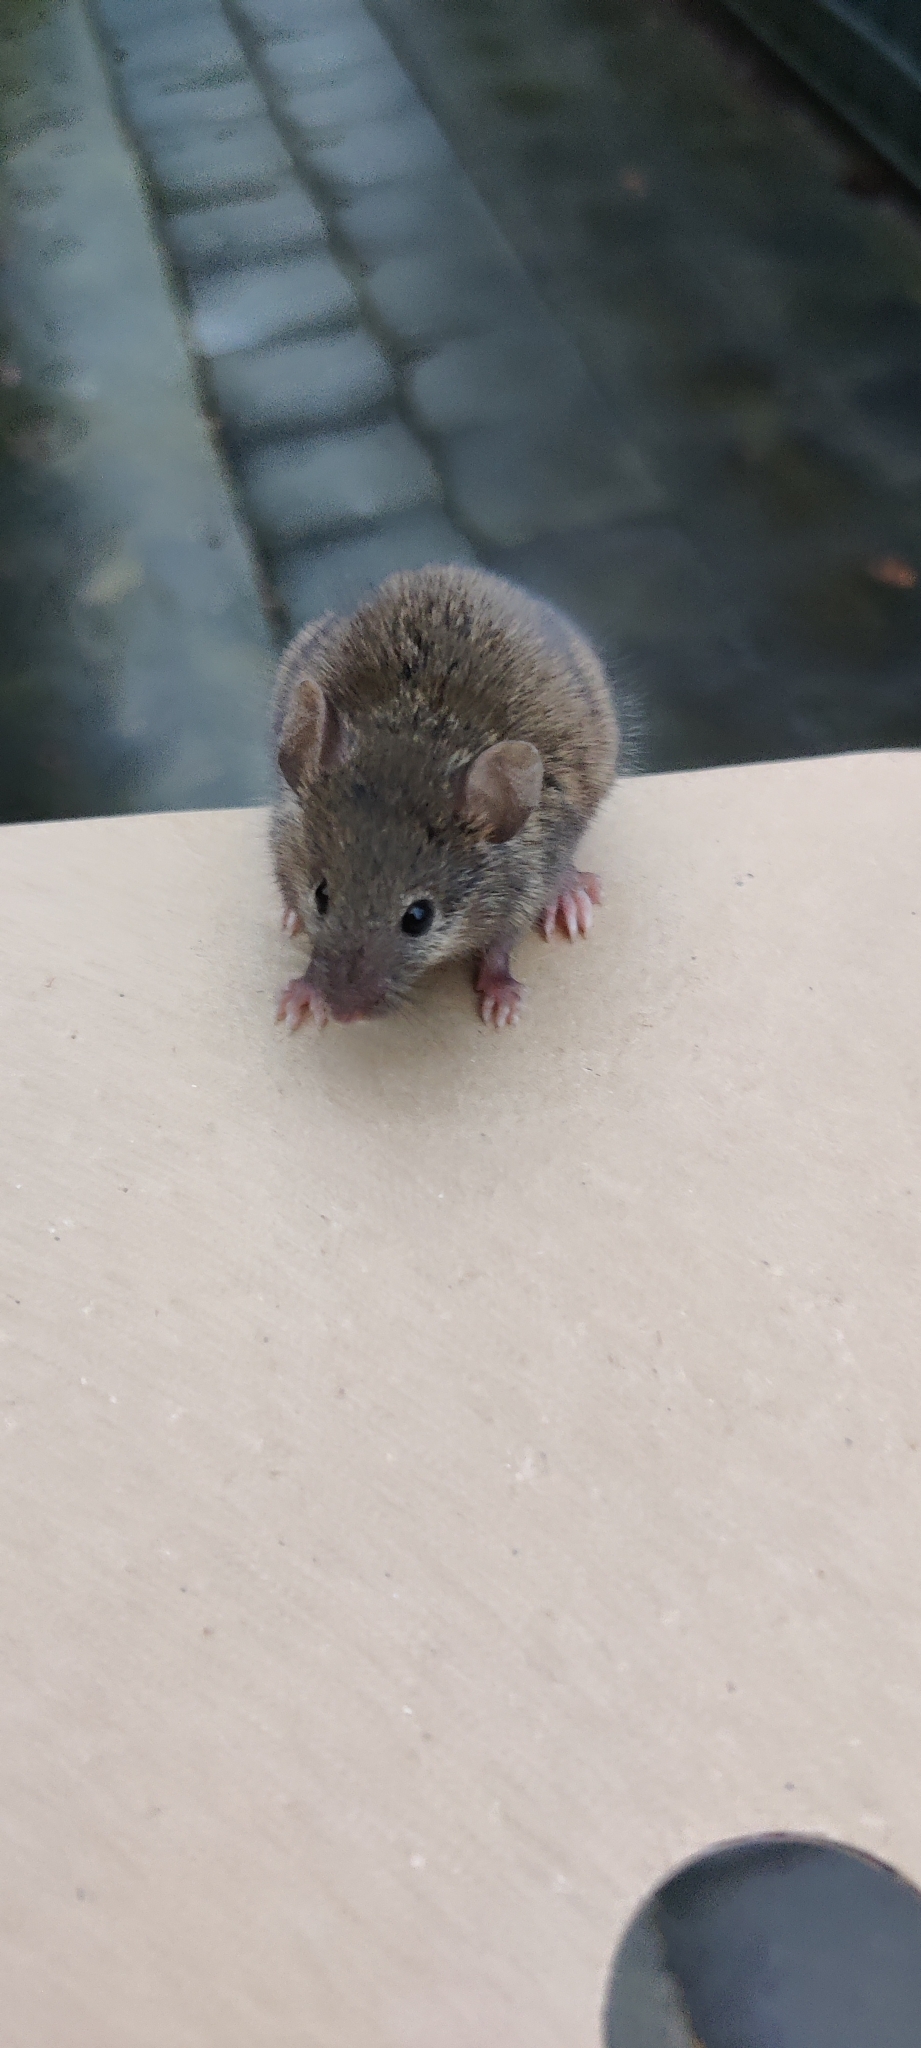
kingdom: Animalia
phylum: Chordata
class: Mammalia
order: Rodentia
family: Muridae
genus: Mus
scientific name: Mus musculus
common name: House mouse
